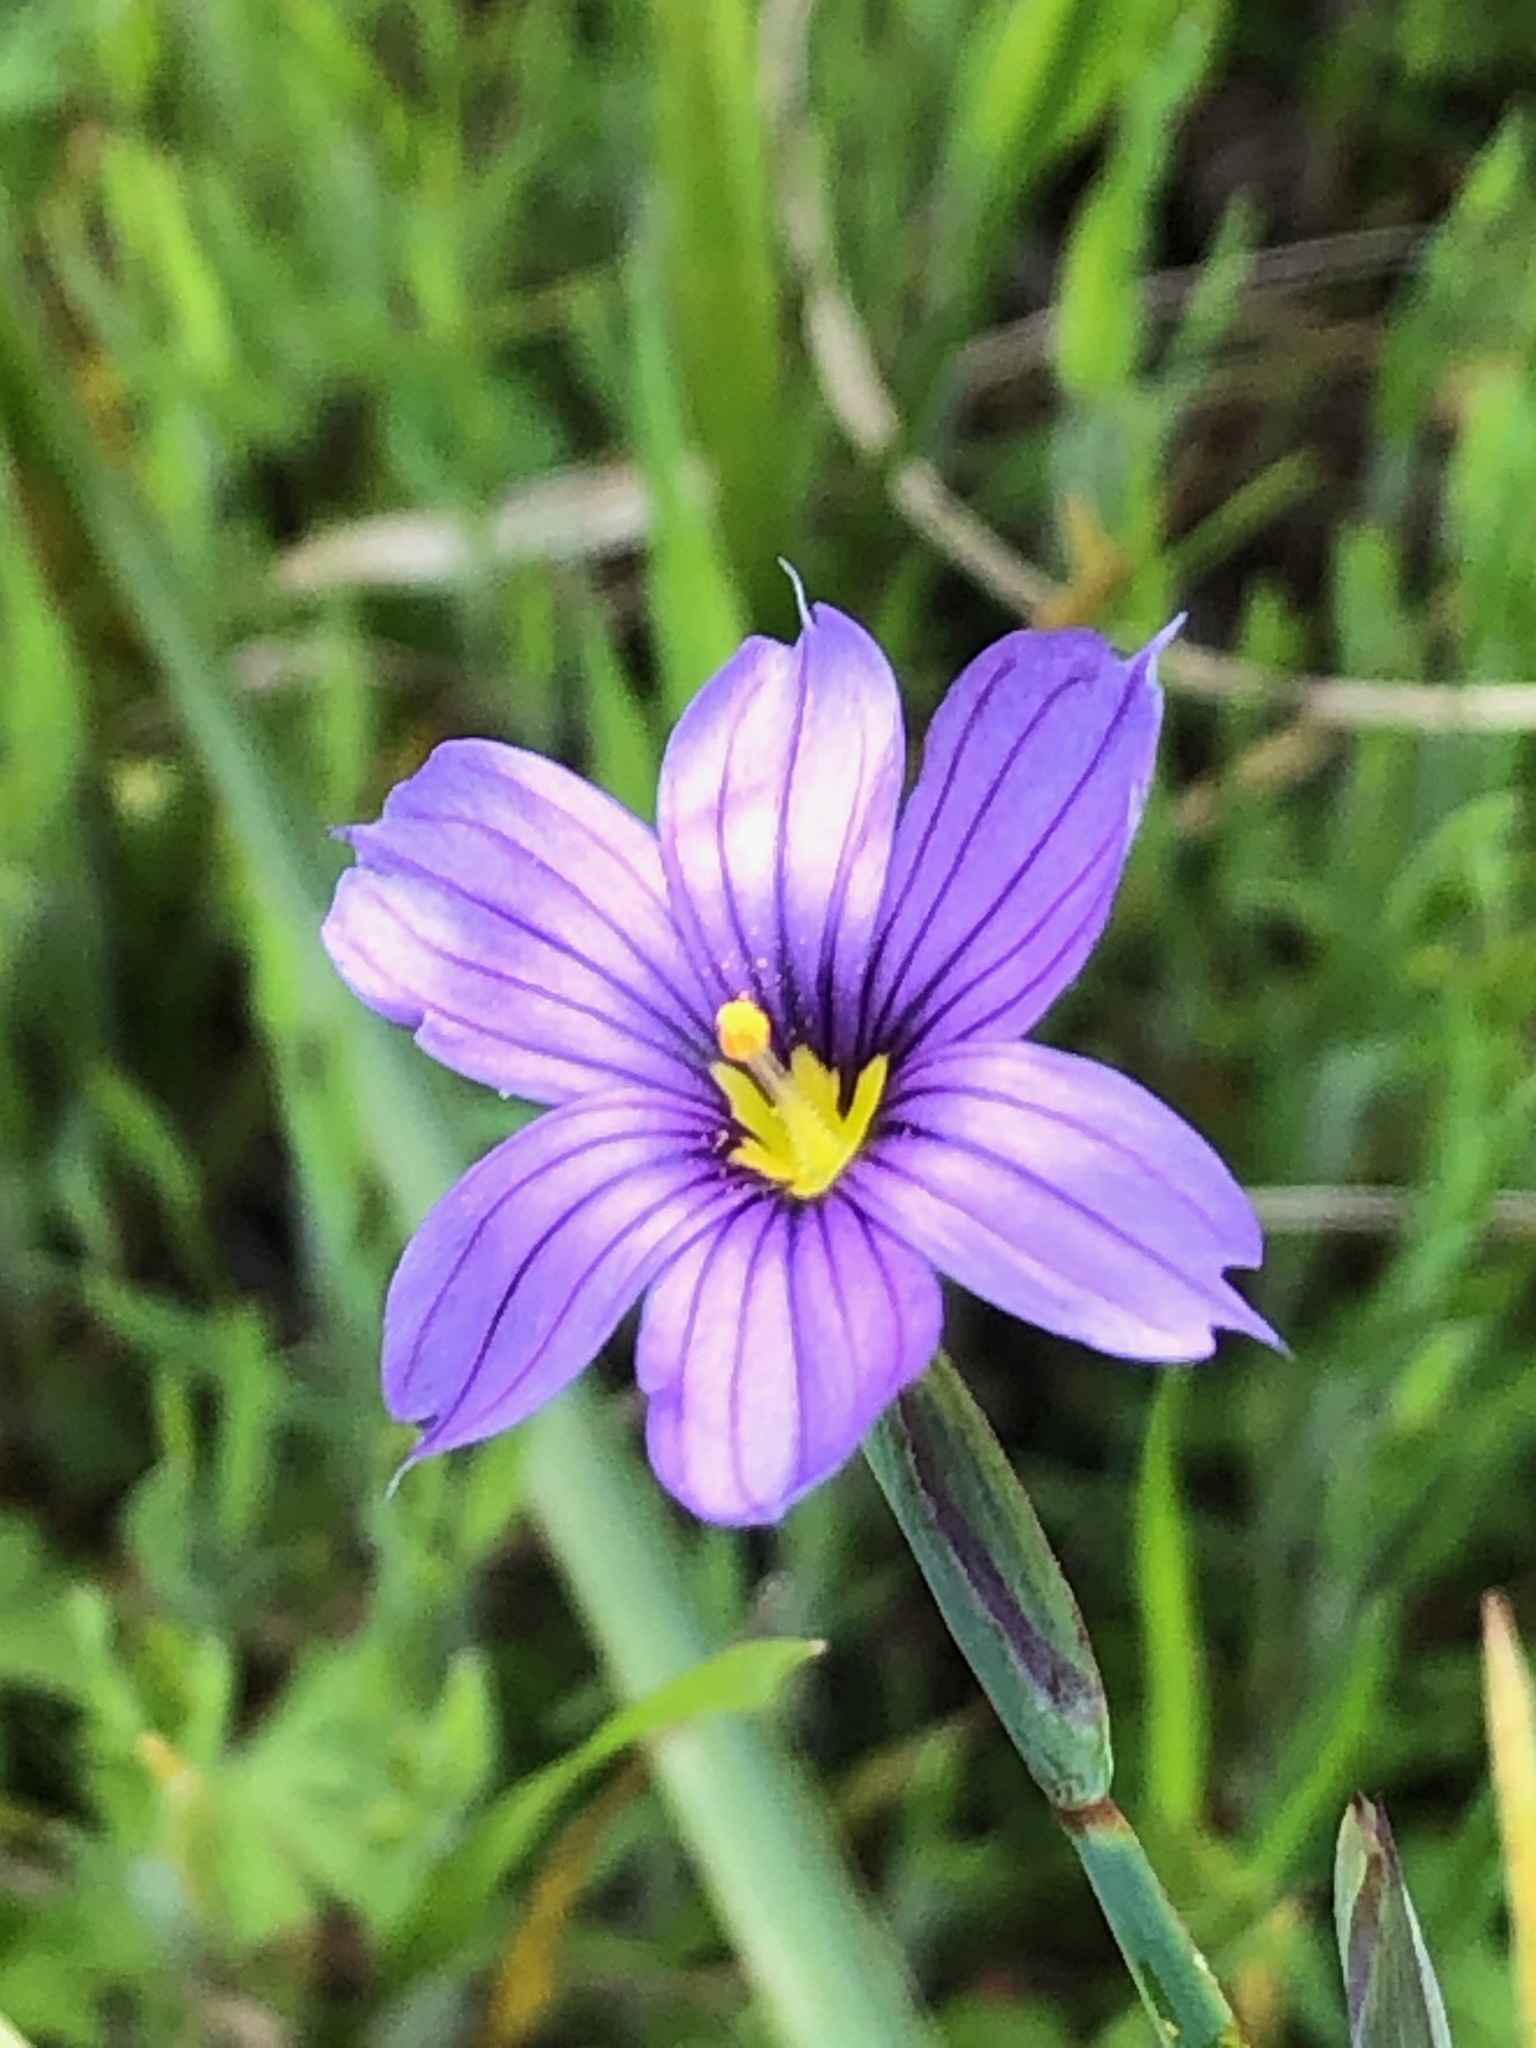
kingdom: Plantae
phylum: Tracheophyta
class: Liliopsida
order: Asparagales
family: Iridaceae
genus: Sisyrinchium
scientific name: Sisyrinchium bellum
